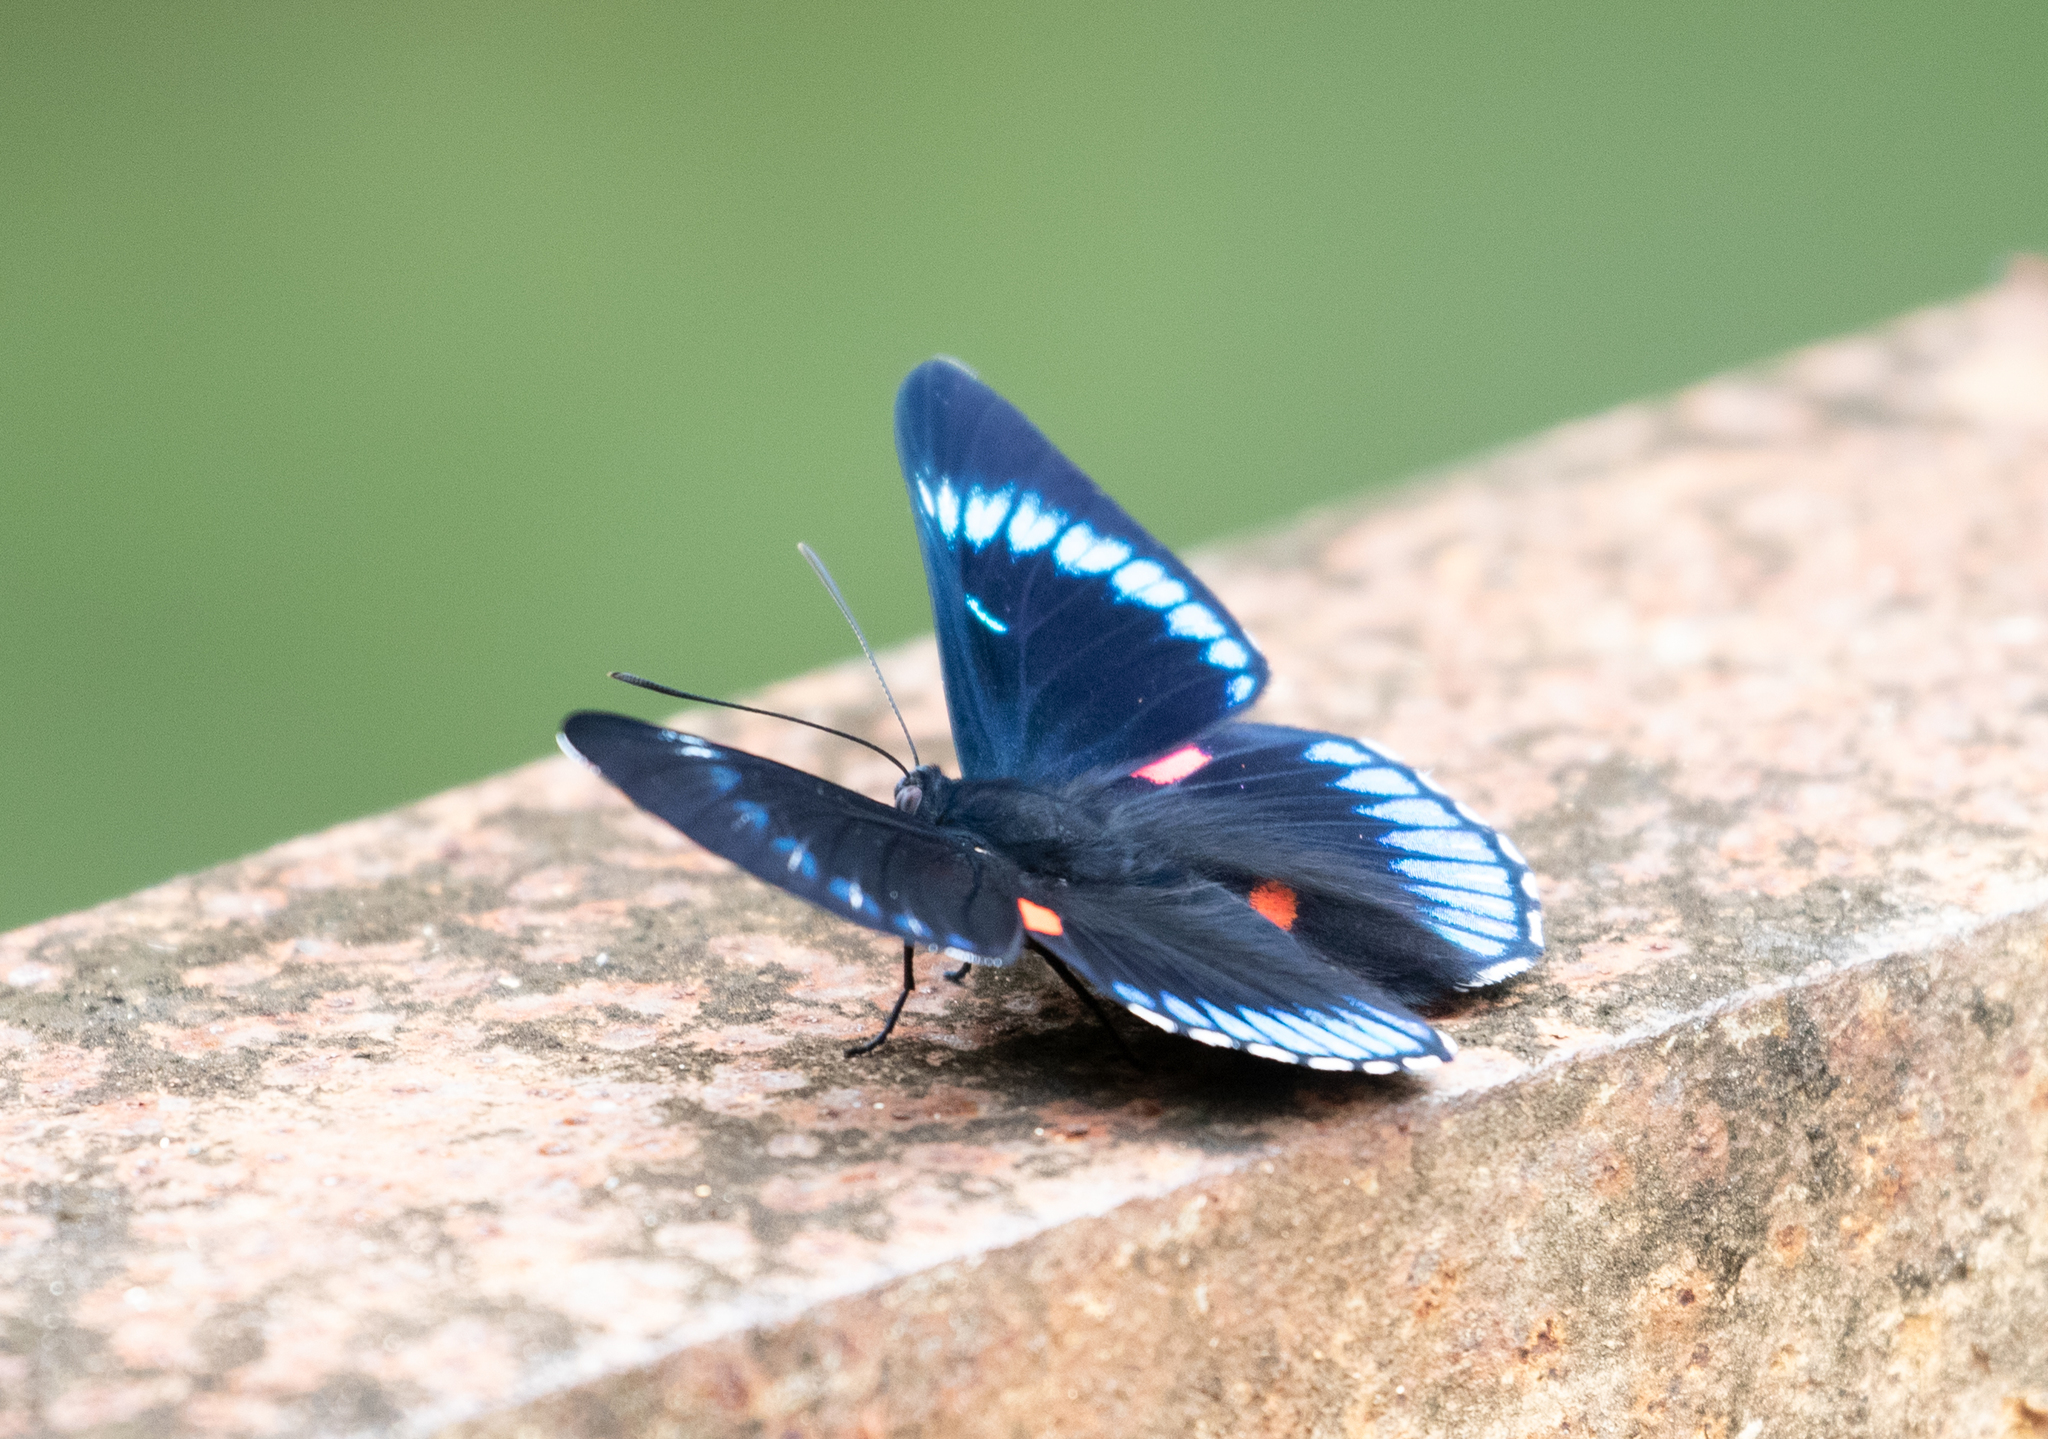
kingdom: Animalia
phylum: Arthropoda
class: Insecta
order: Lepidoptera
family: Lycaenidae
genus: Necyria
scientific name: Necyria bellona
